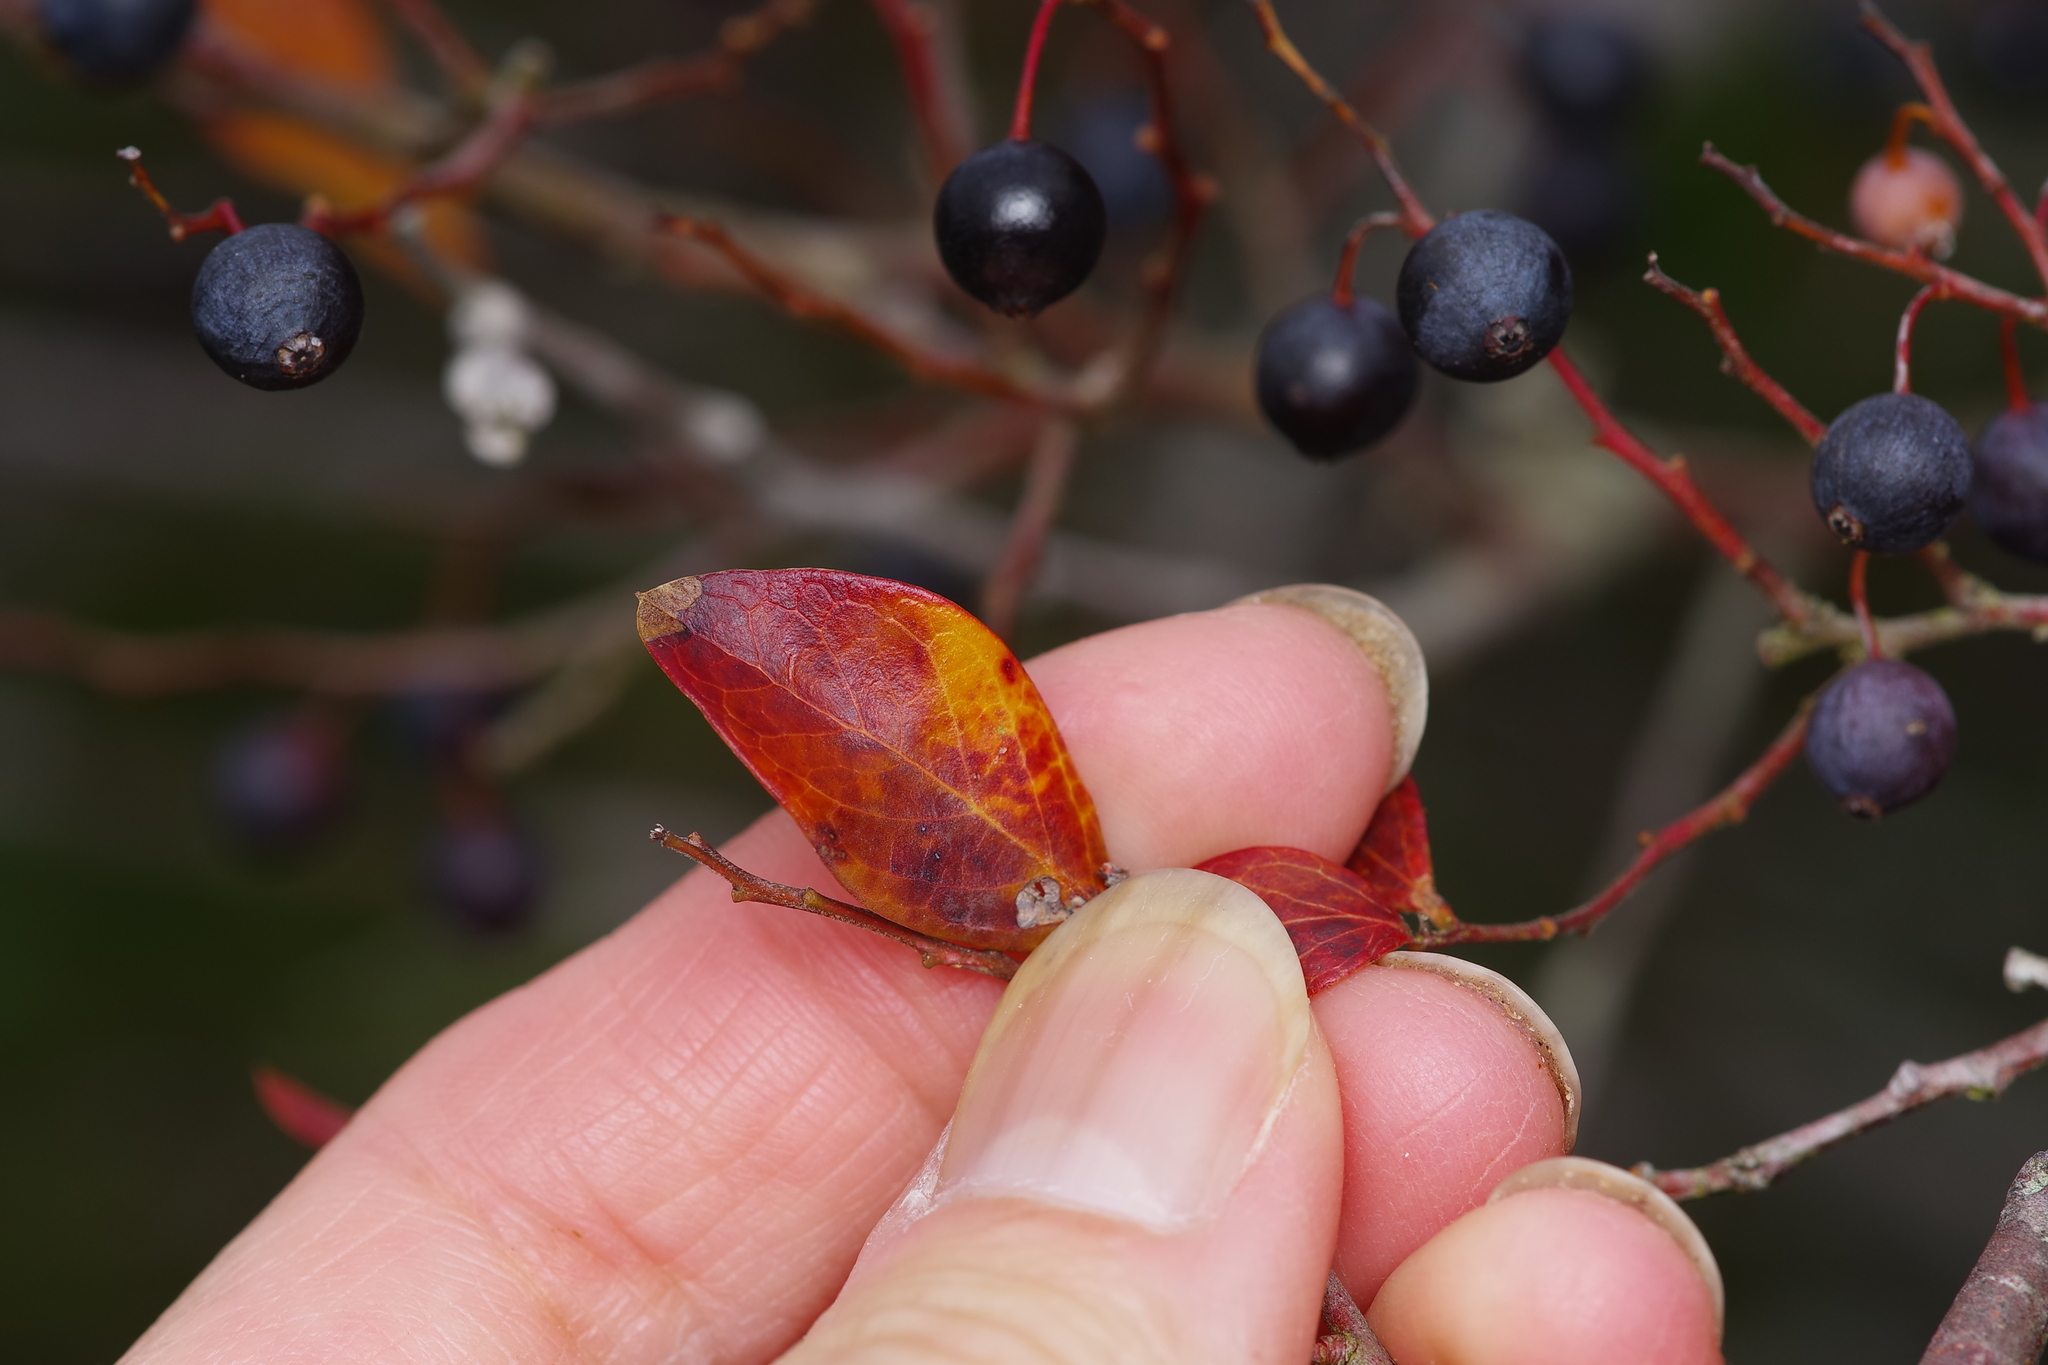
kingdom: Plantae
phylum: Tracheophyta
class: Magnoliopsida
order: Ericales
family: Ericaceae
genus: Vaccinium
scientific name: Vaccinium arboreum
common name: Farkleberry
